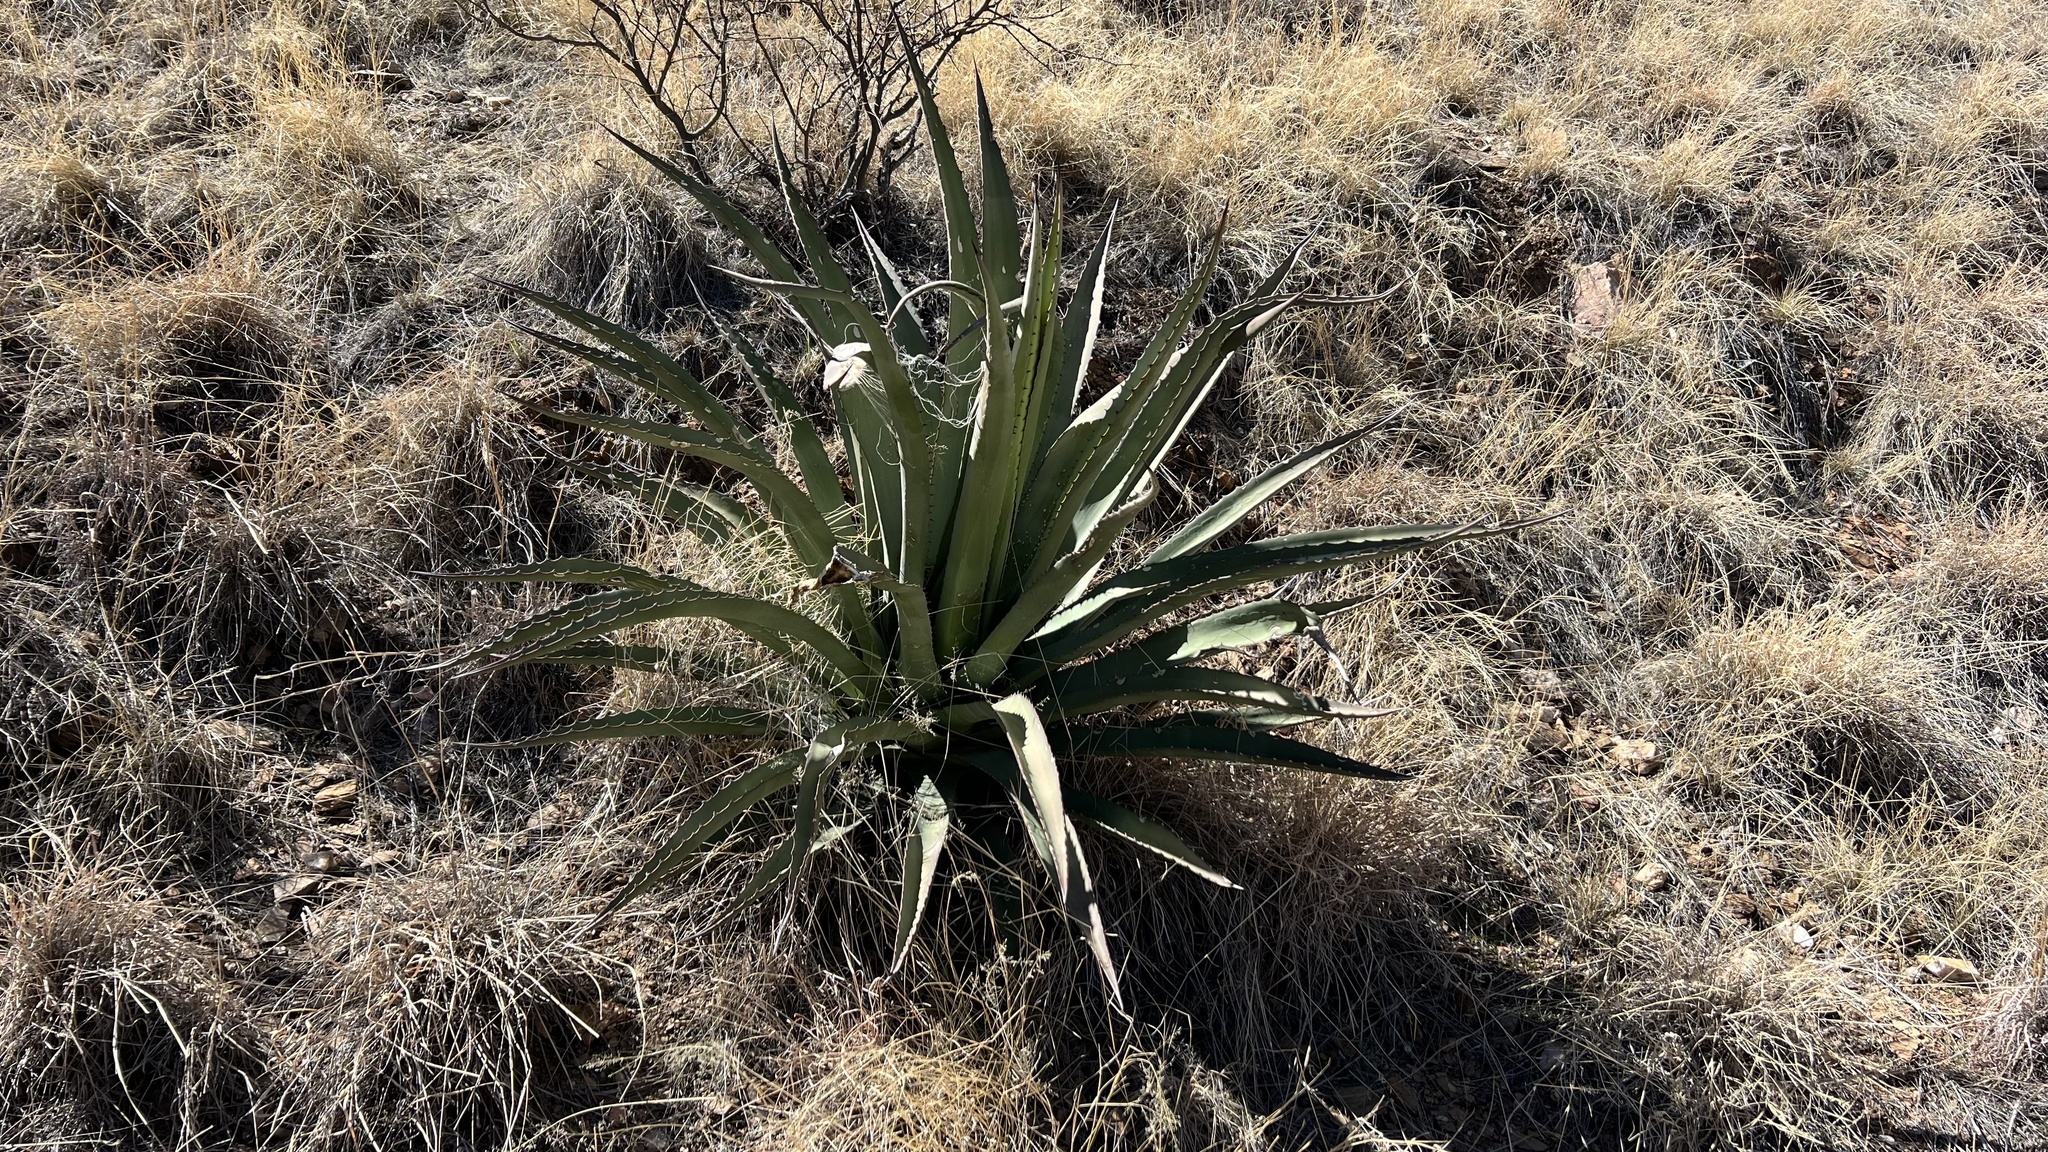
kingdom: Plantae
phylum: Tracheophyta
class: Liliopsida
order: Asparagales
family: Asparagaceae
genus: Agave
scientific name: Agave palmeri
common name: Palmer agave
